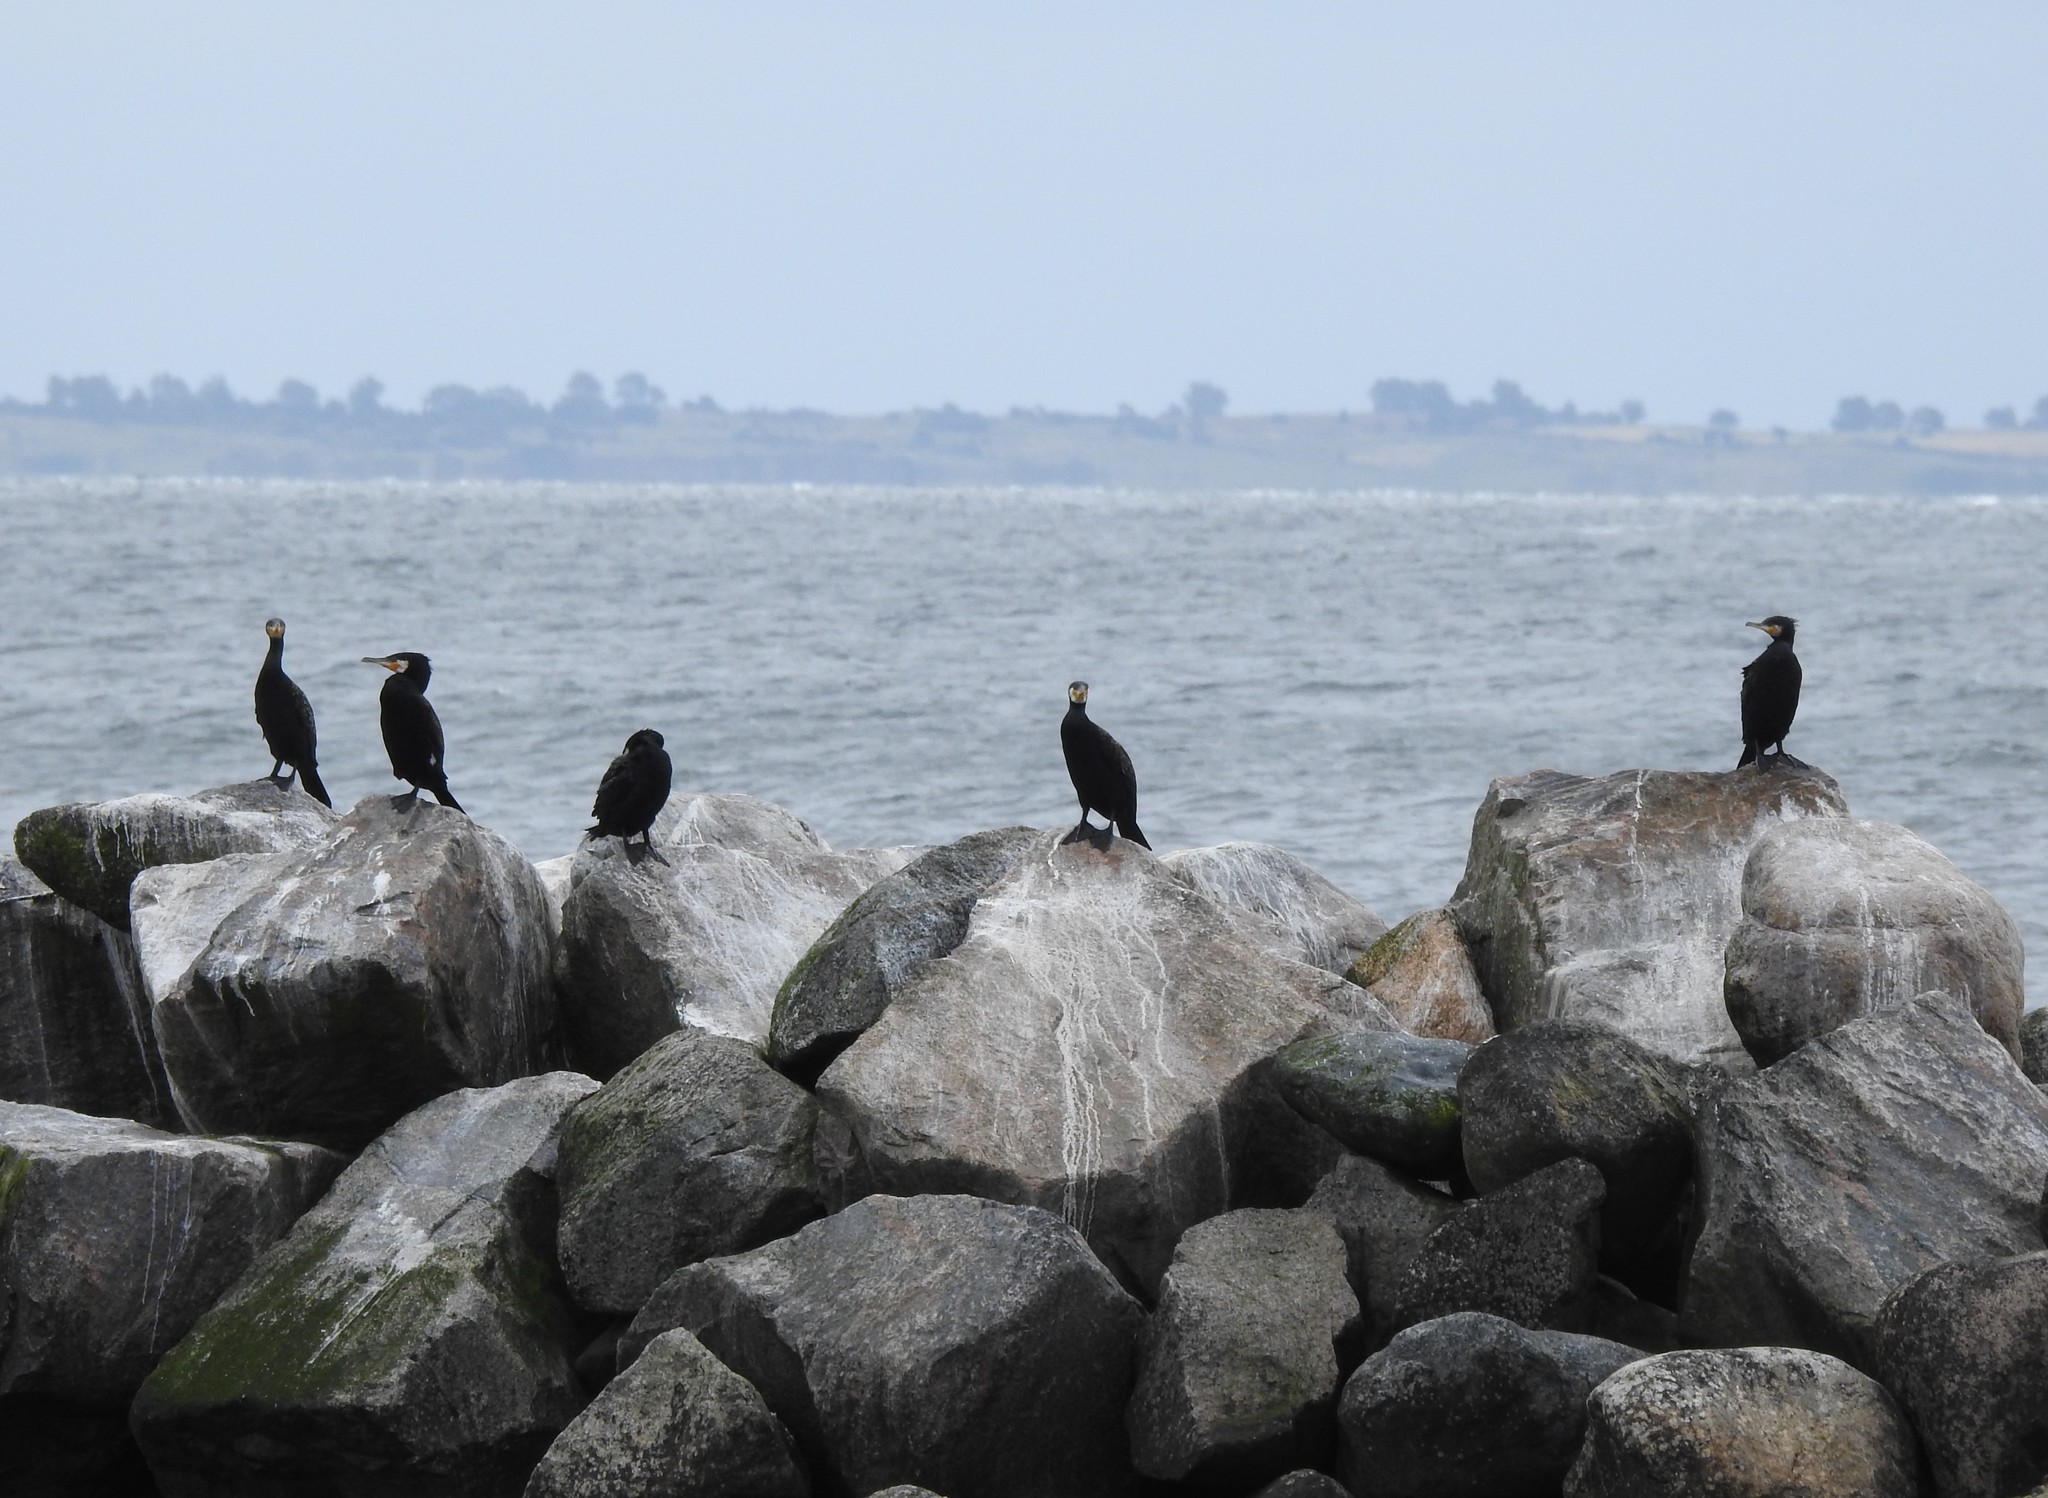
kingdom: Animalia
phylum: Chordata
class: Aves
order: Suliformes
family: Phalacrocoracidae
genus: Phalacrocorax
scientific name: Phalacrocorax carbo
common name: Great cormorant
